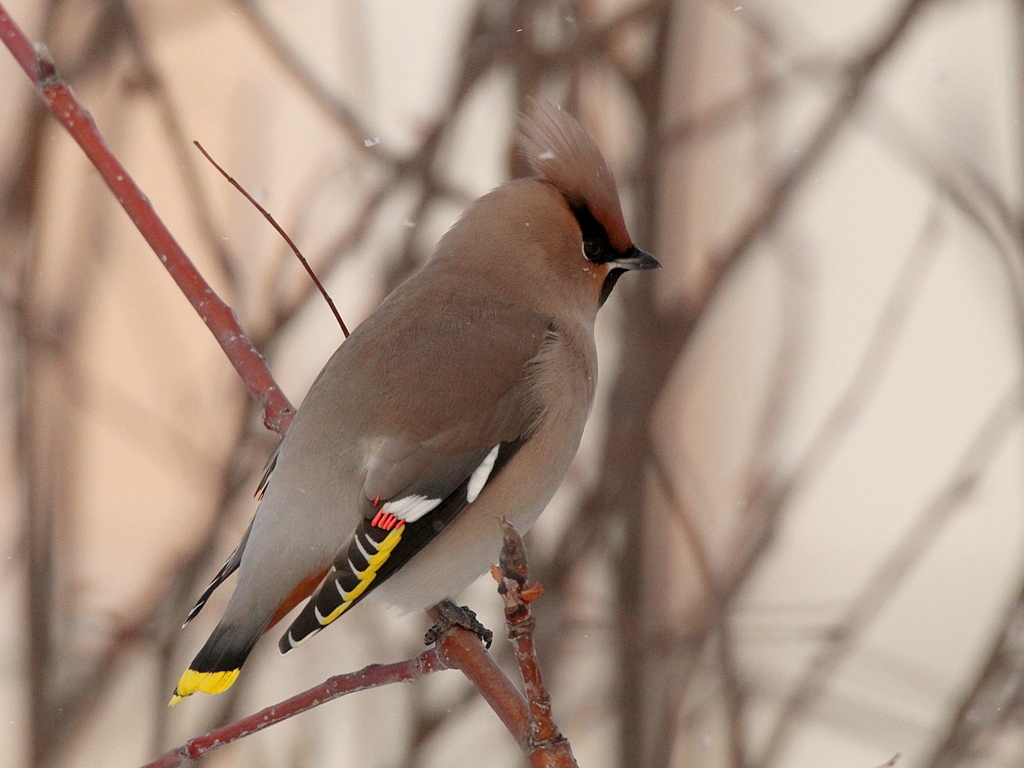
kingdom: Animalia
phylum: Chordata
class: Aves
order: Passeriformes
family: Bombycillidae
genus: Bombycilla
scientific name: Bombycilla garrulus
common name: Bohemian waxwing
